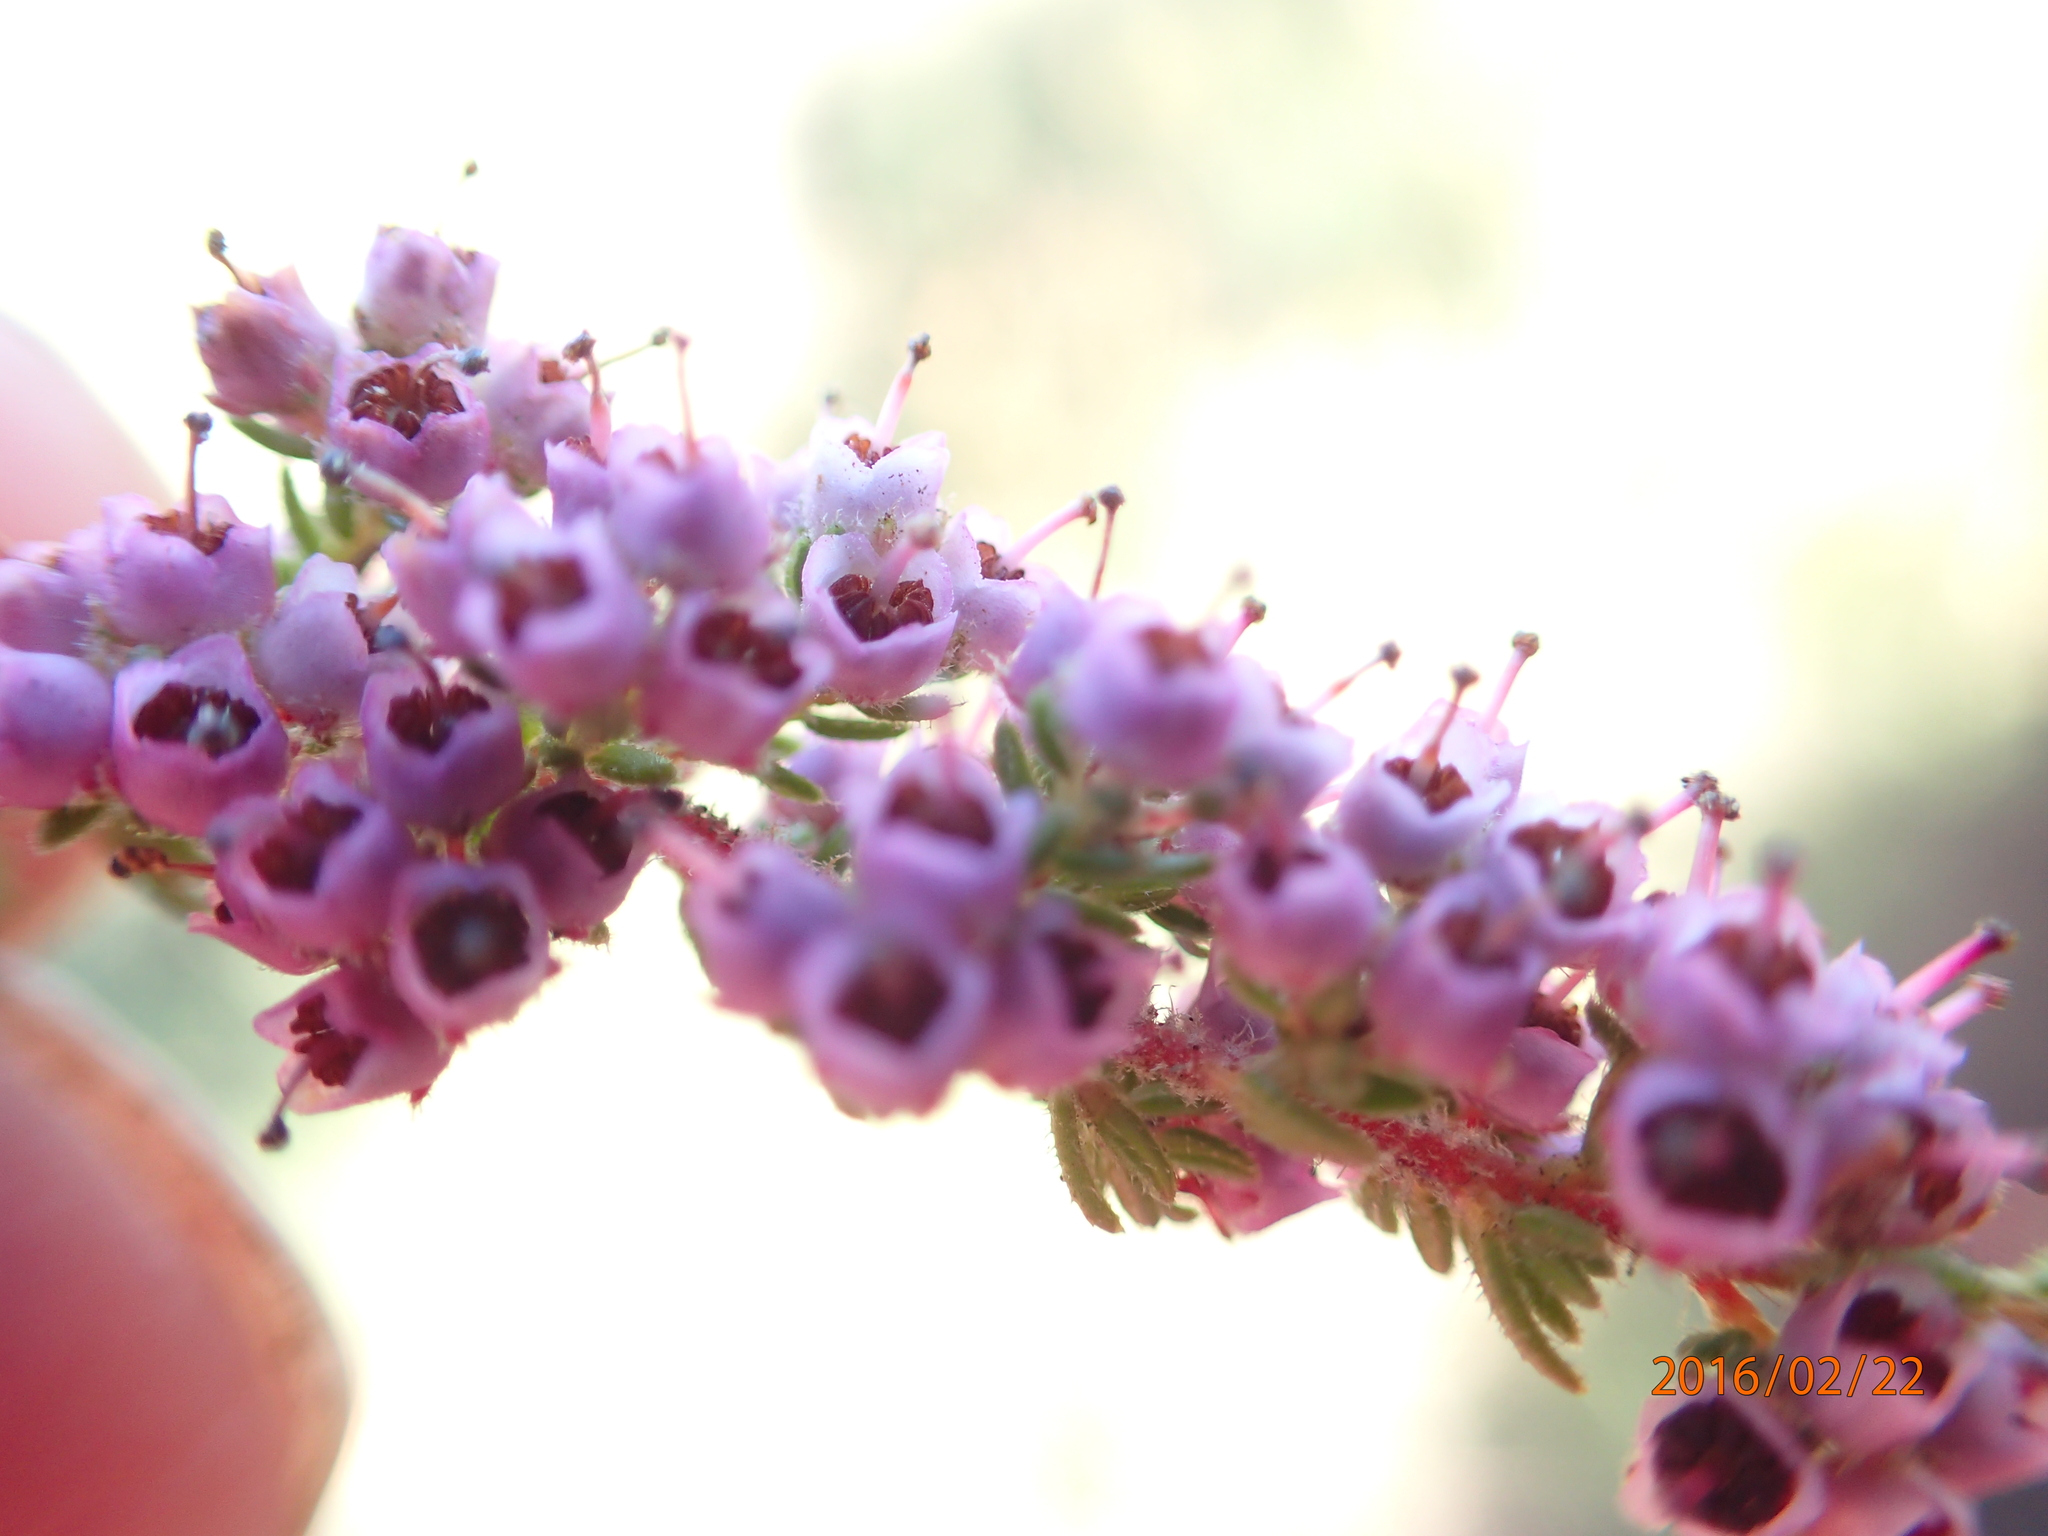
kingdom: Plantae
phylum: Tracheophyta
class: Magnoliopsida
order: Ericales
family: Ericaceae
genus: Erica
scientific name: Erica woodii
